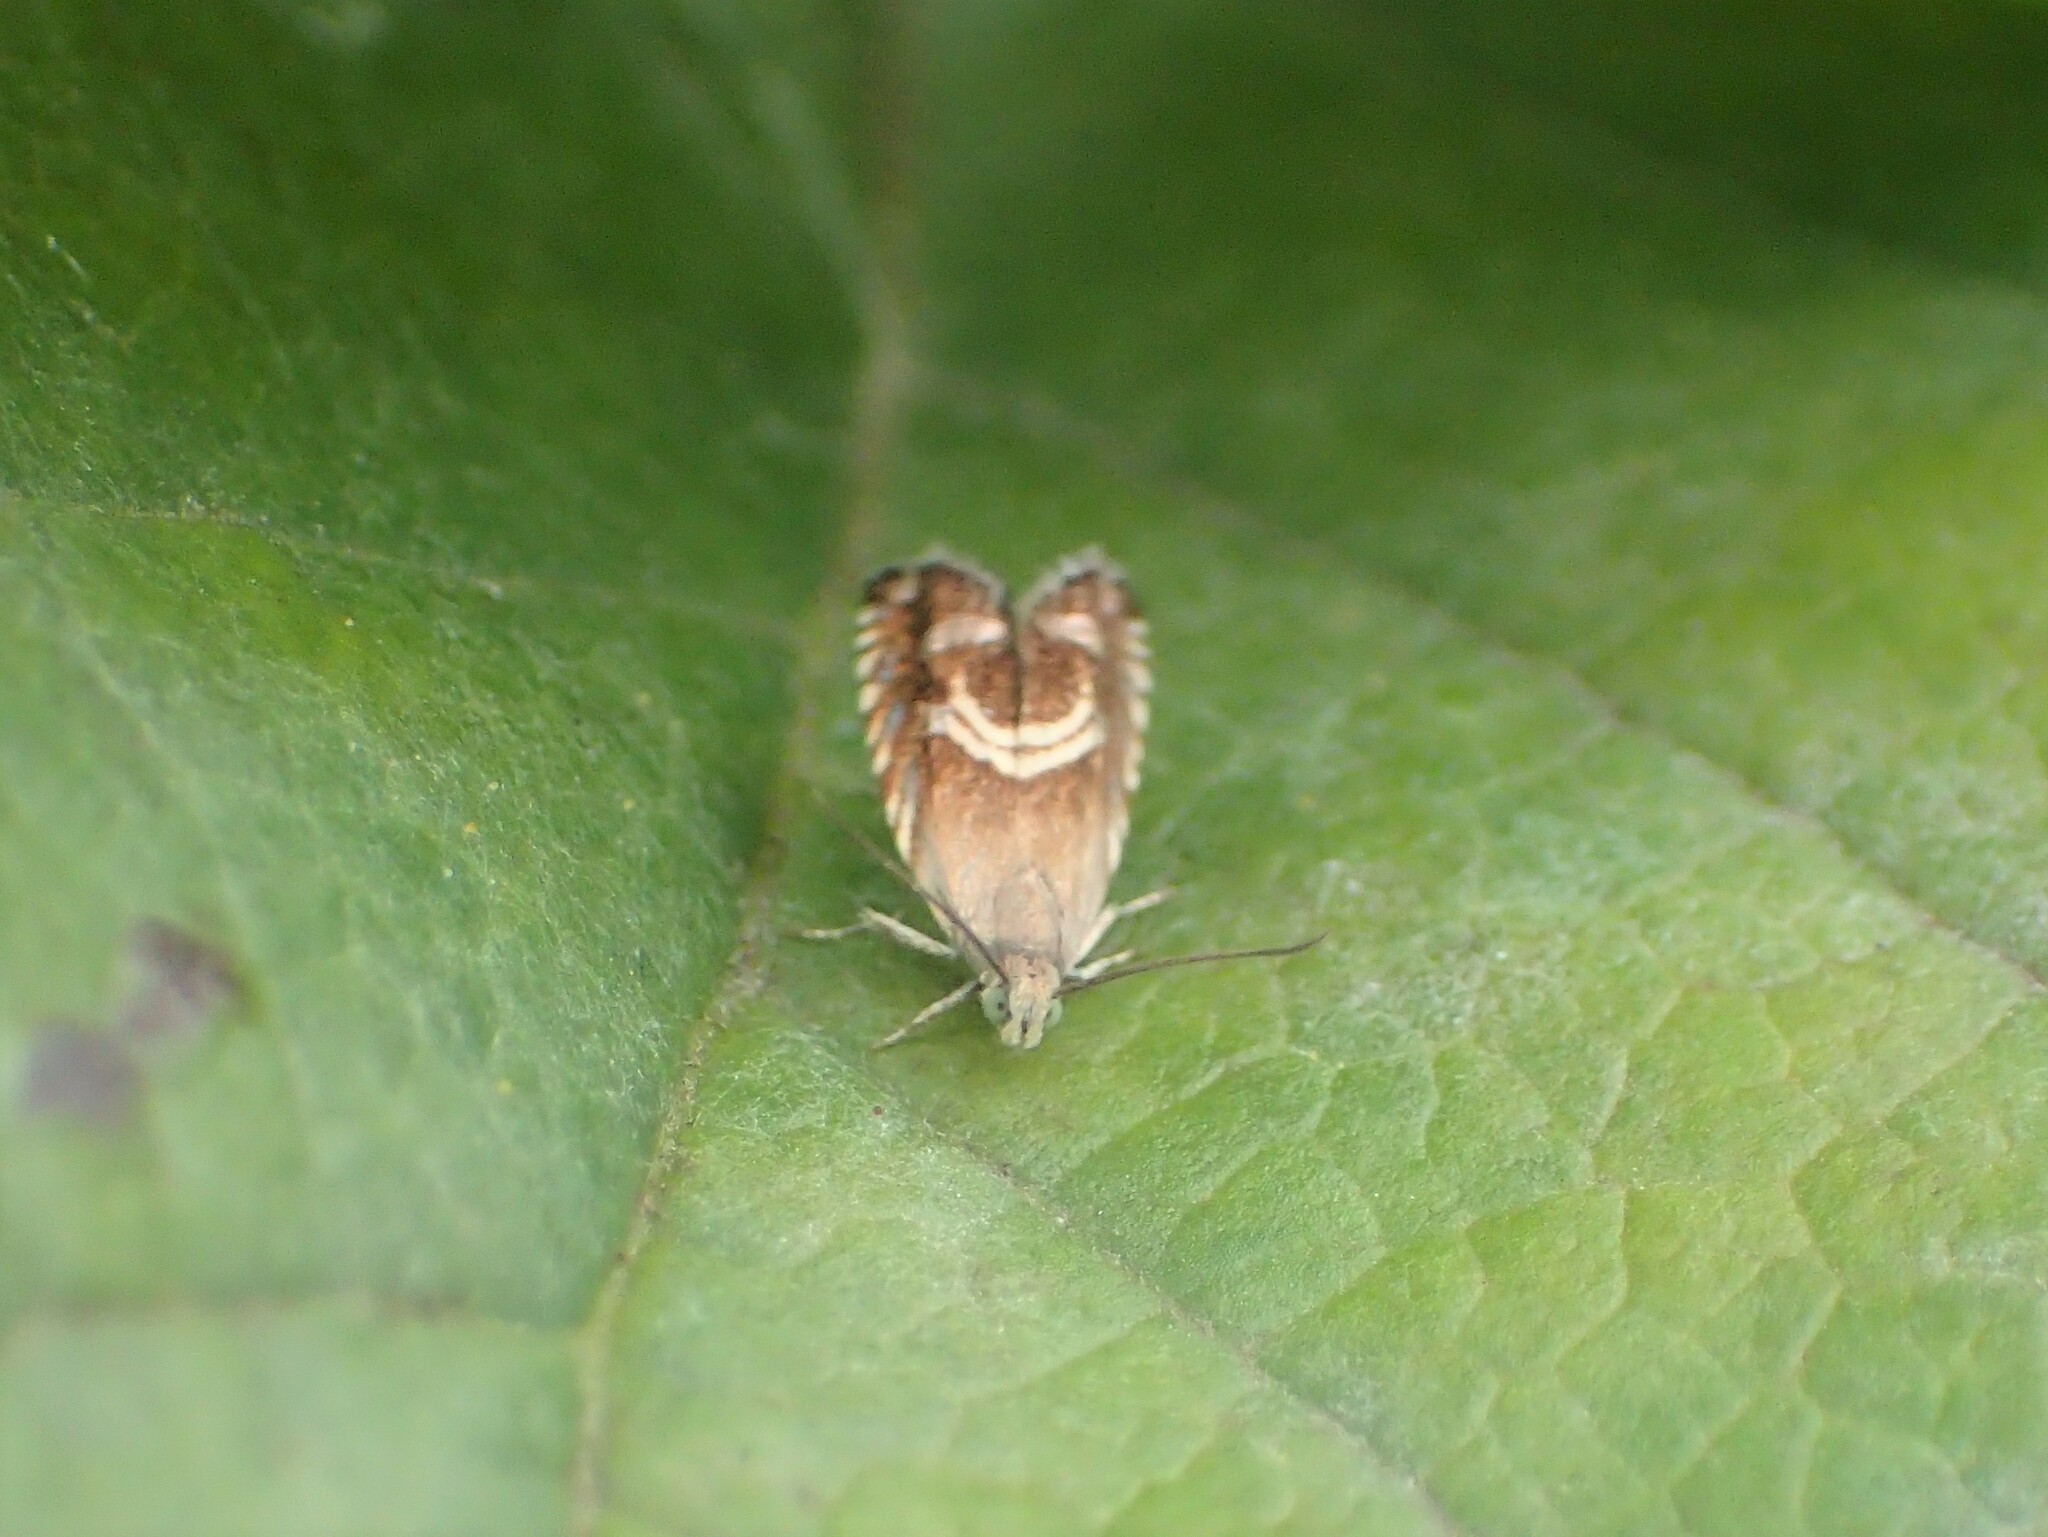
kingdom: Animalia
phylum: Arthropoda
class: Insecta
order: Lepidoptera
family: Tortricidae
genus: Grapholita
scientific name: Grapholita interstinctana
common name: Clover head caterpillar moth
